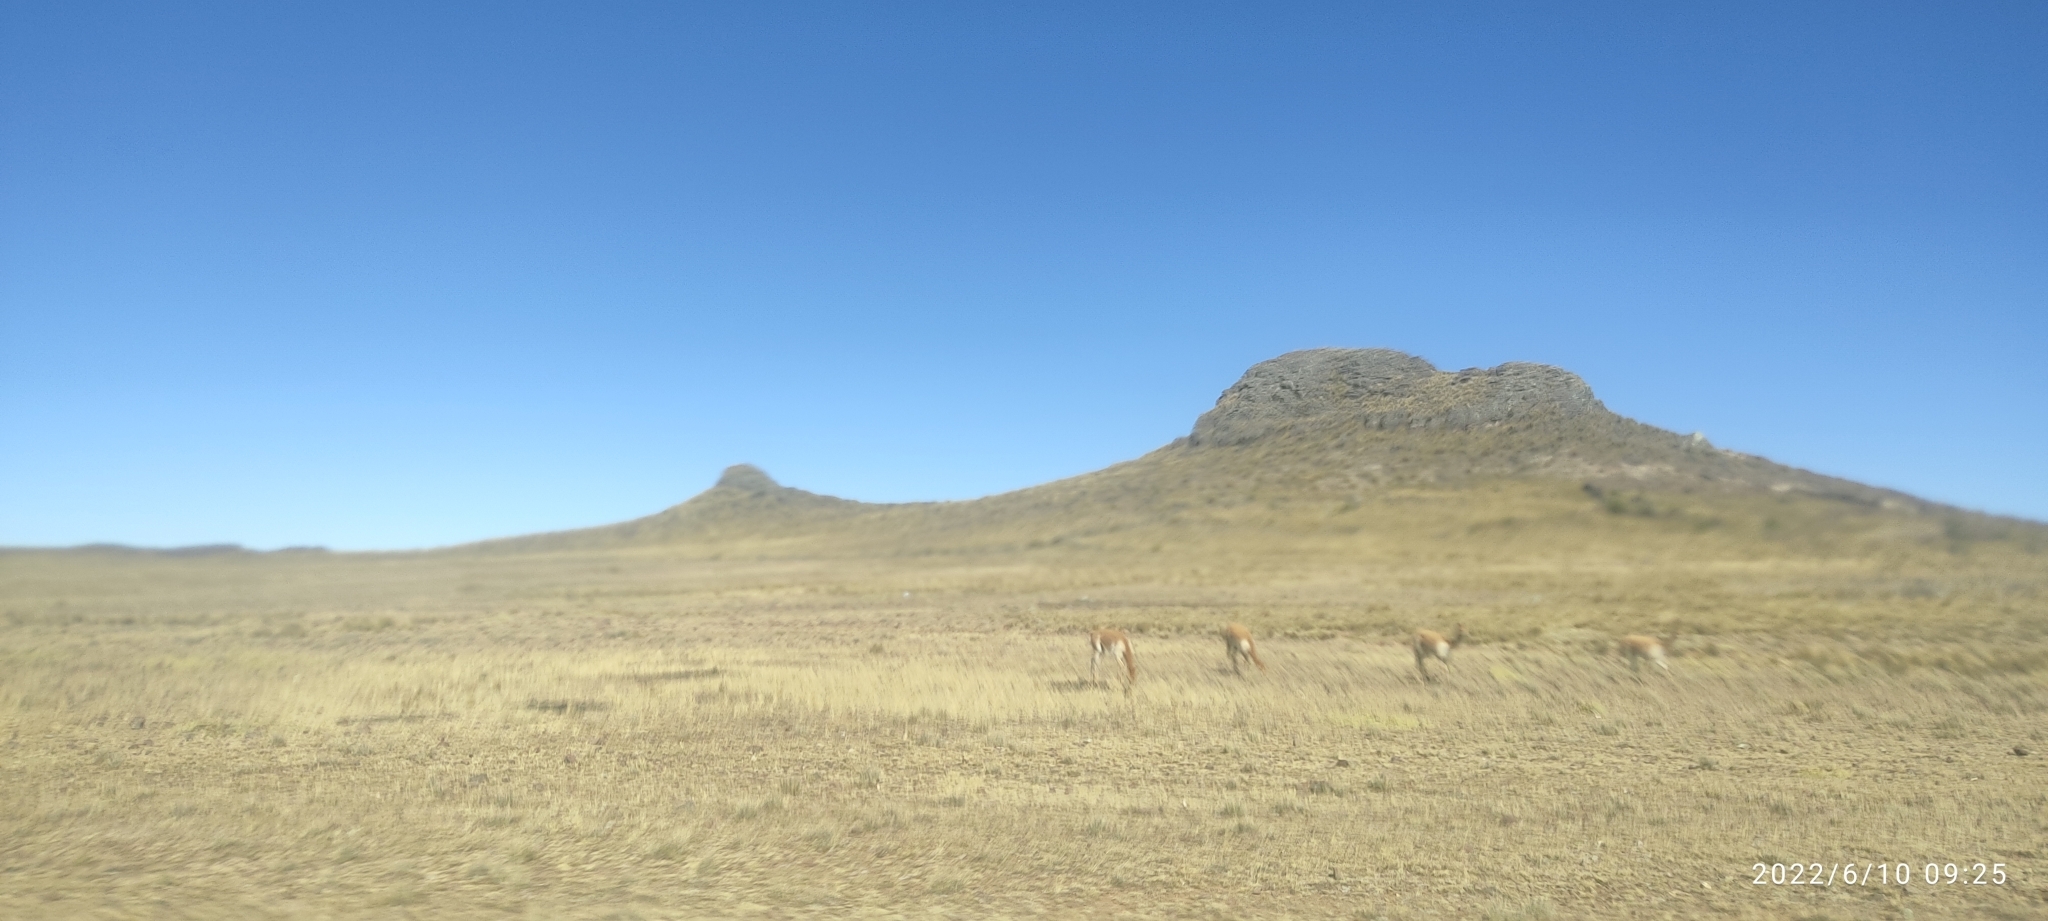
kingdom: Animalia
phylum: Chordata
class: Mammalia
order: Artiodactyla
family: Camelidae
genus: Vicugna
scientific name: Vicugna vicugna
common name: Vicugna
